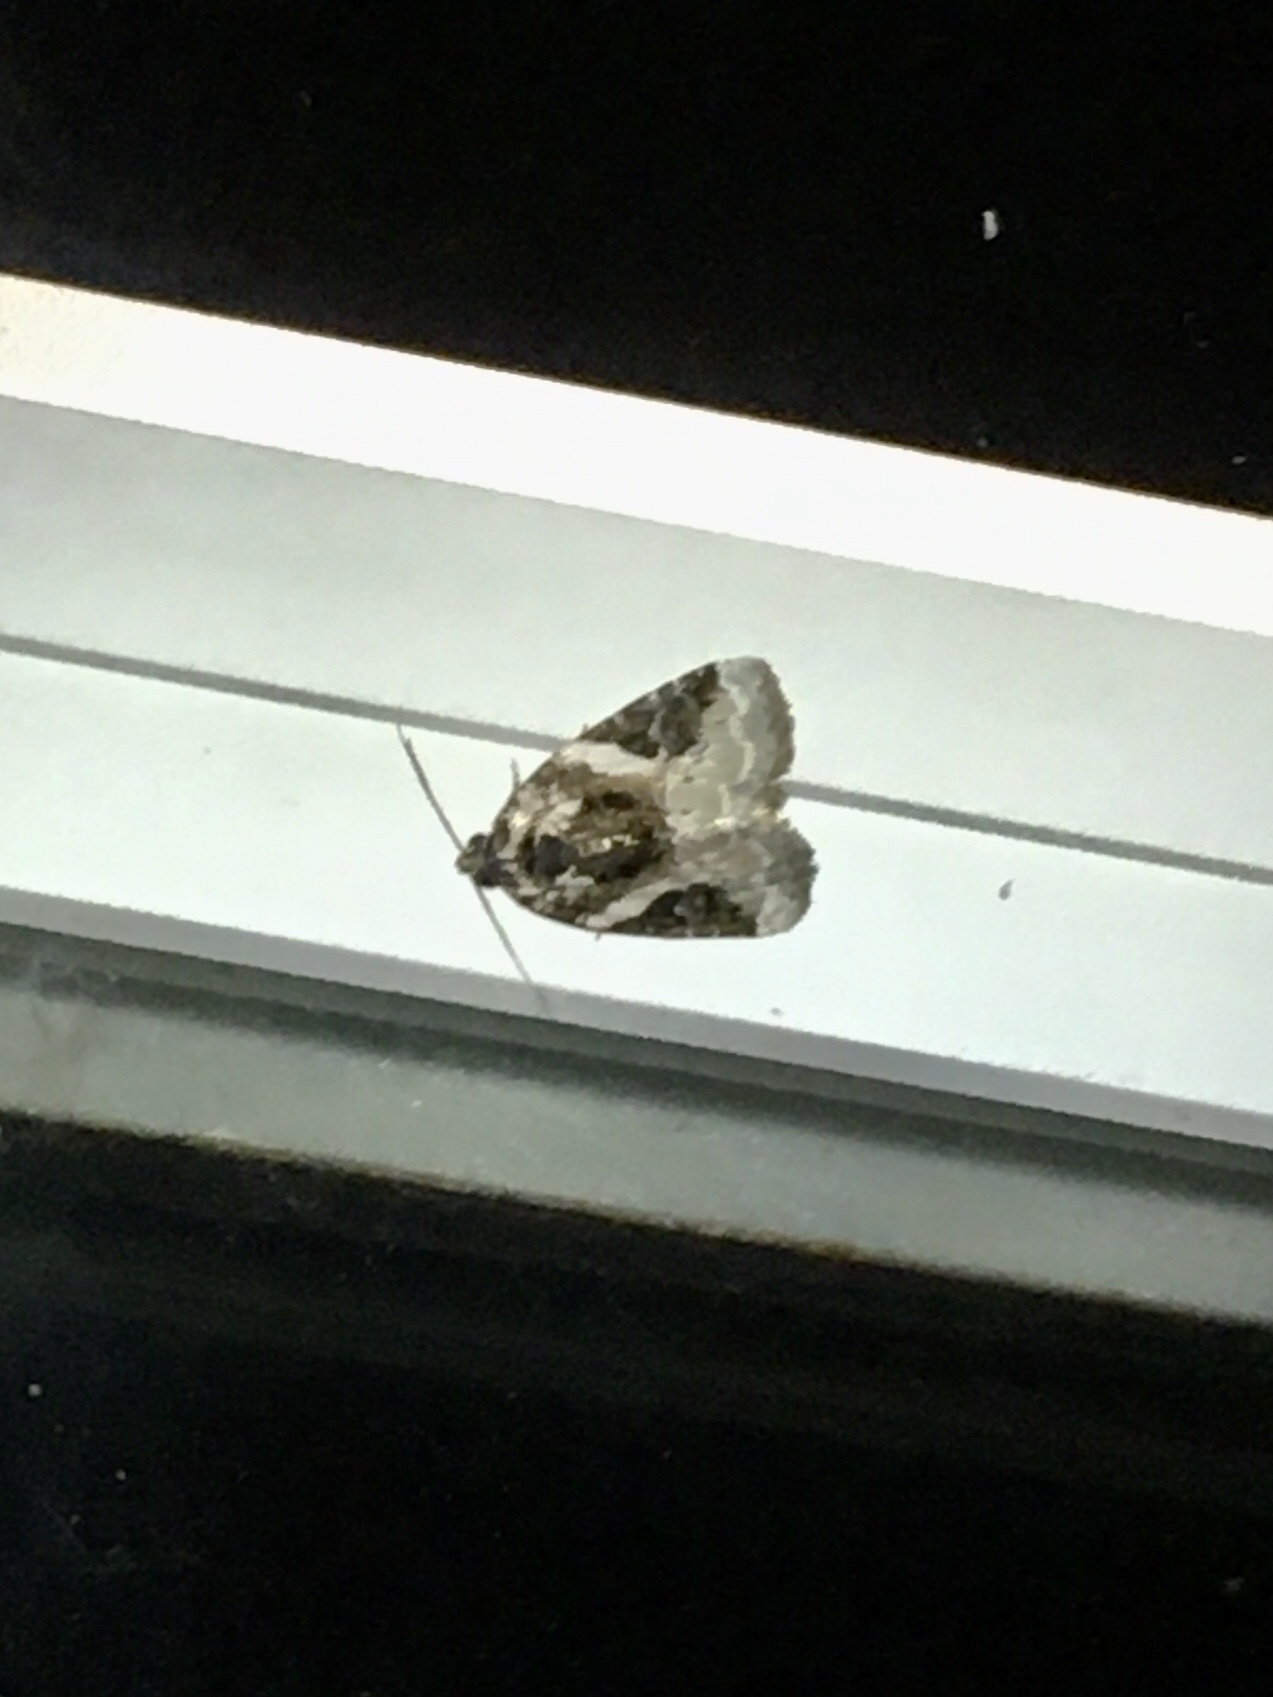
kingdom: Animalia
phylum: Arthropoda
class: Insecta
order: Lepidoptera
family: Noctuidae
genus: Pseudeustrotia
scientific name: Pseudeustrotia carneola
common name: Pink-barred lithacodia moth
